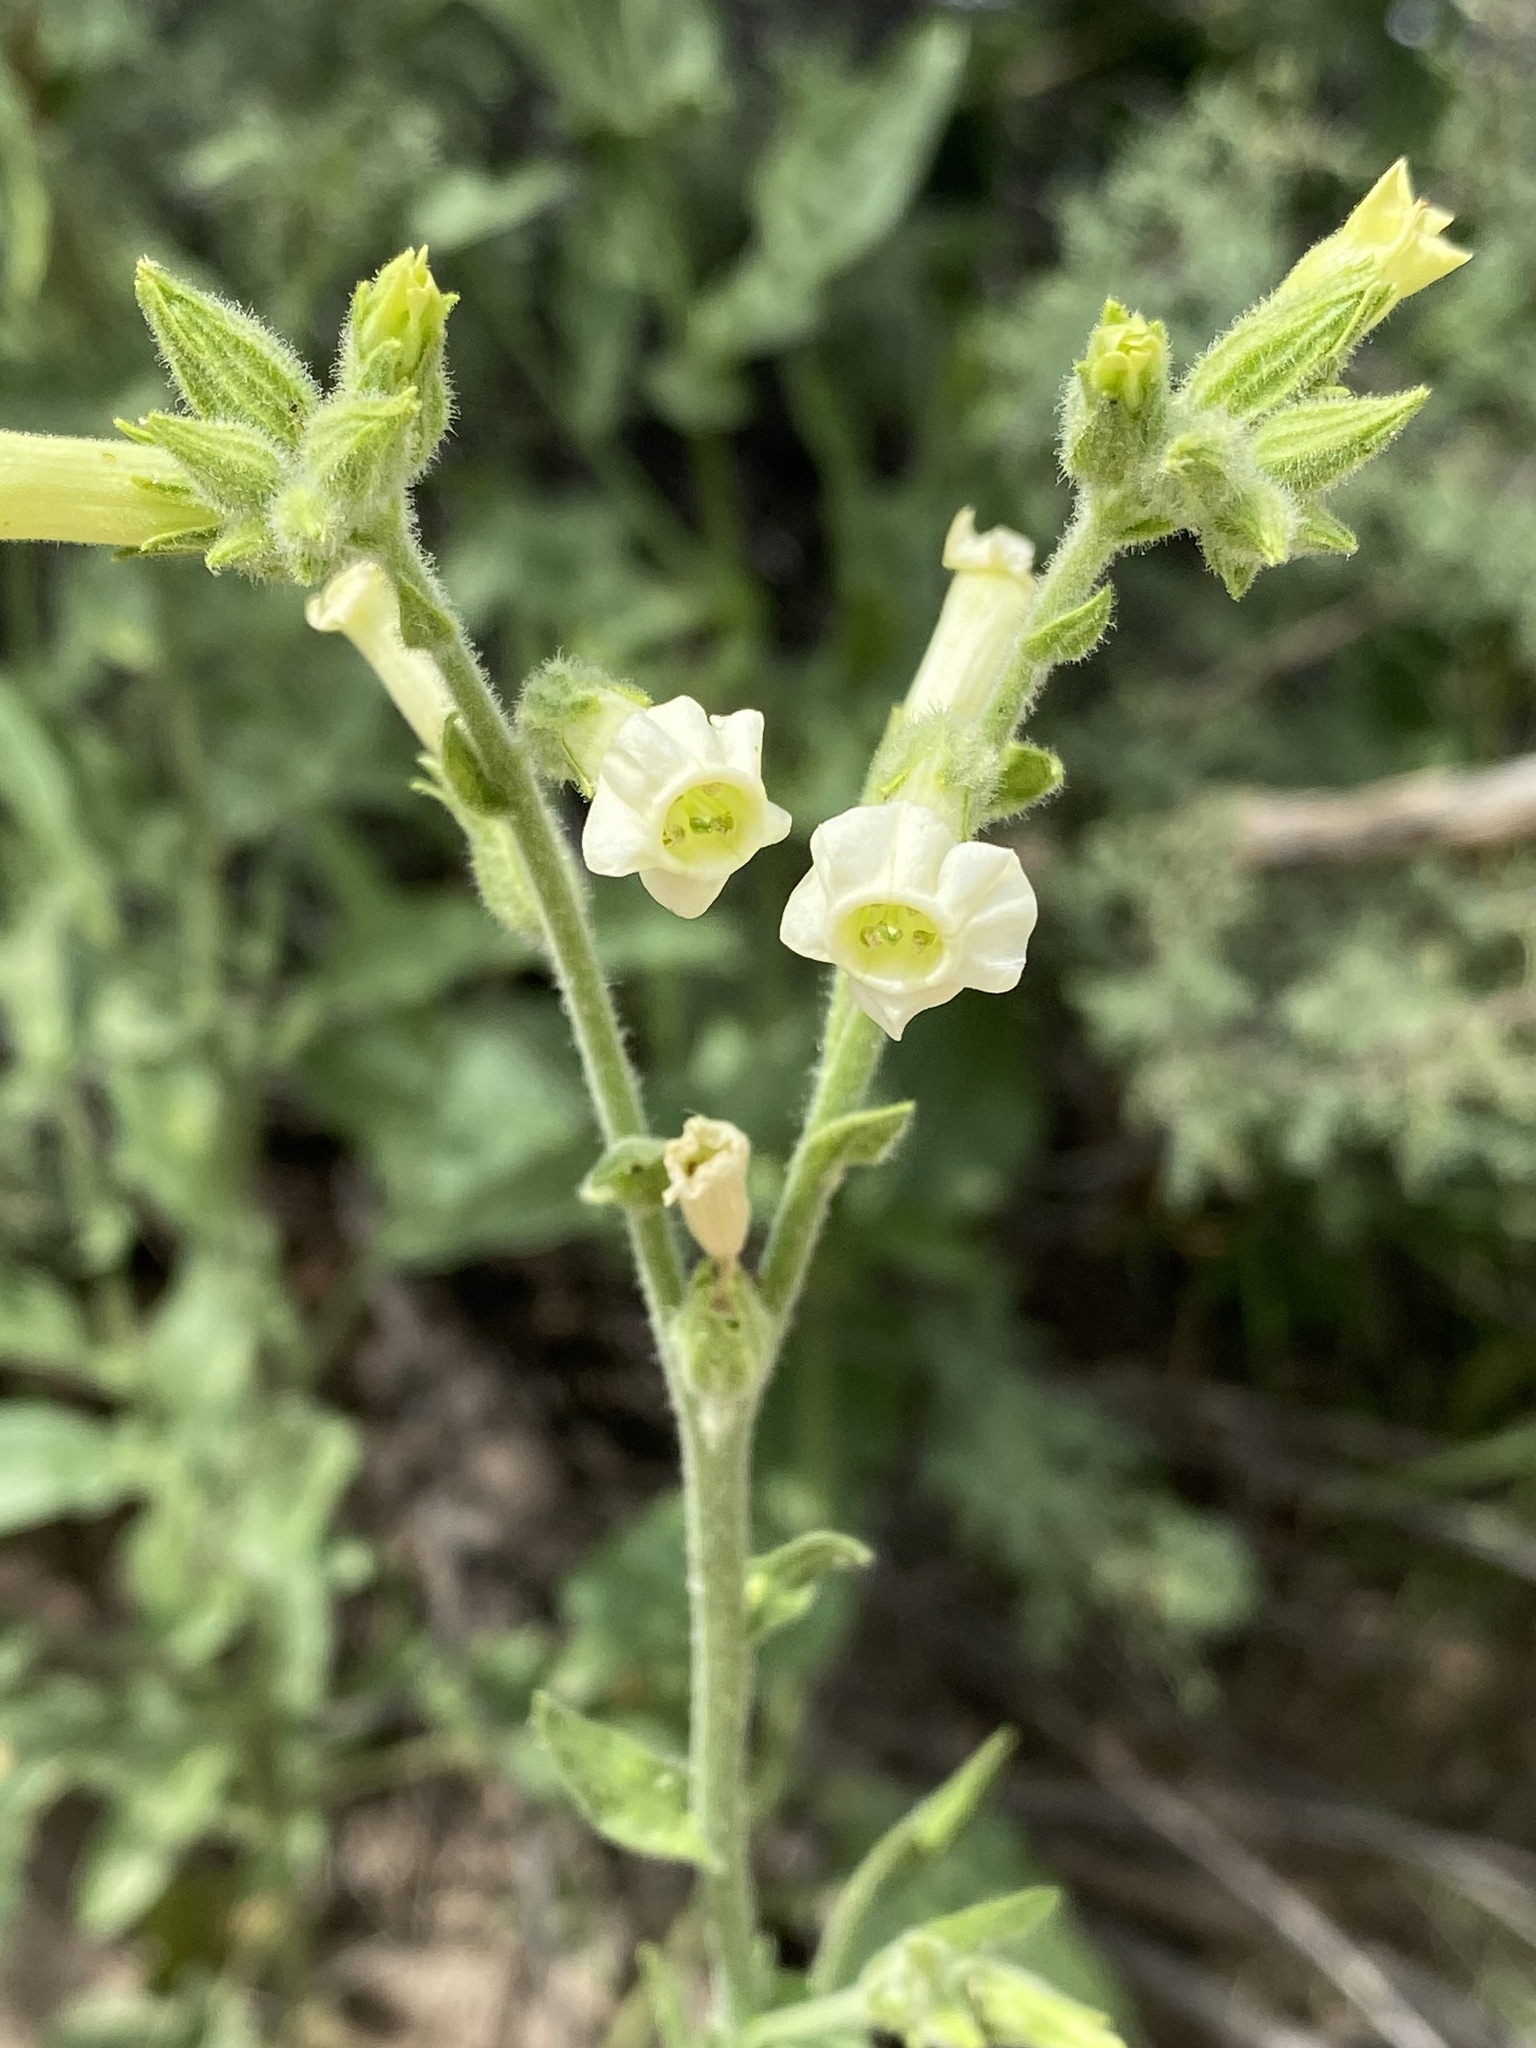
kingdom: Plantae
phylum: Tracheophyta
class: Magnoliopsida
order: Solanales
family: Solanaceae
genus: Nicotiana
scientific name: Nicotiana obtusifolia
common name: Desert tobacco
